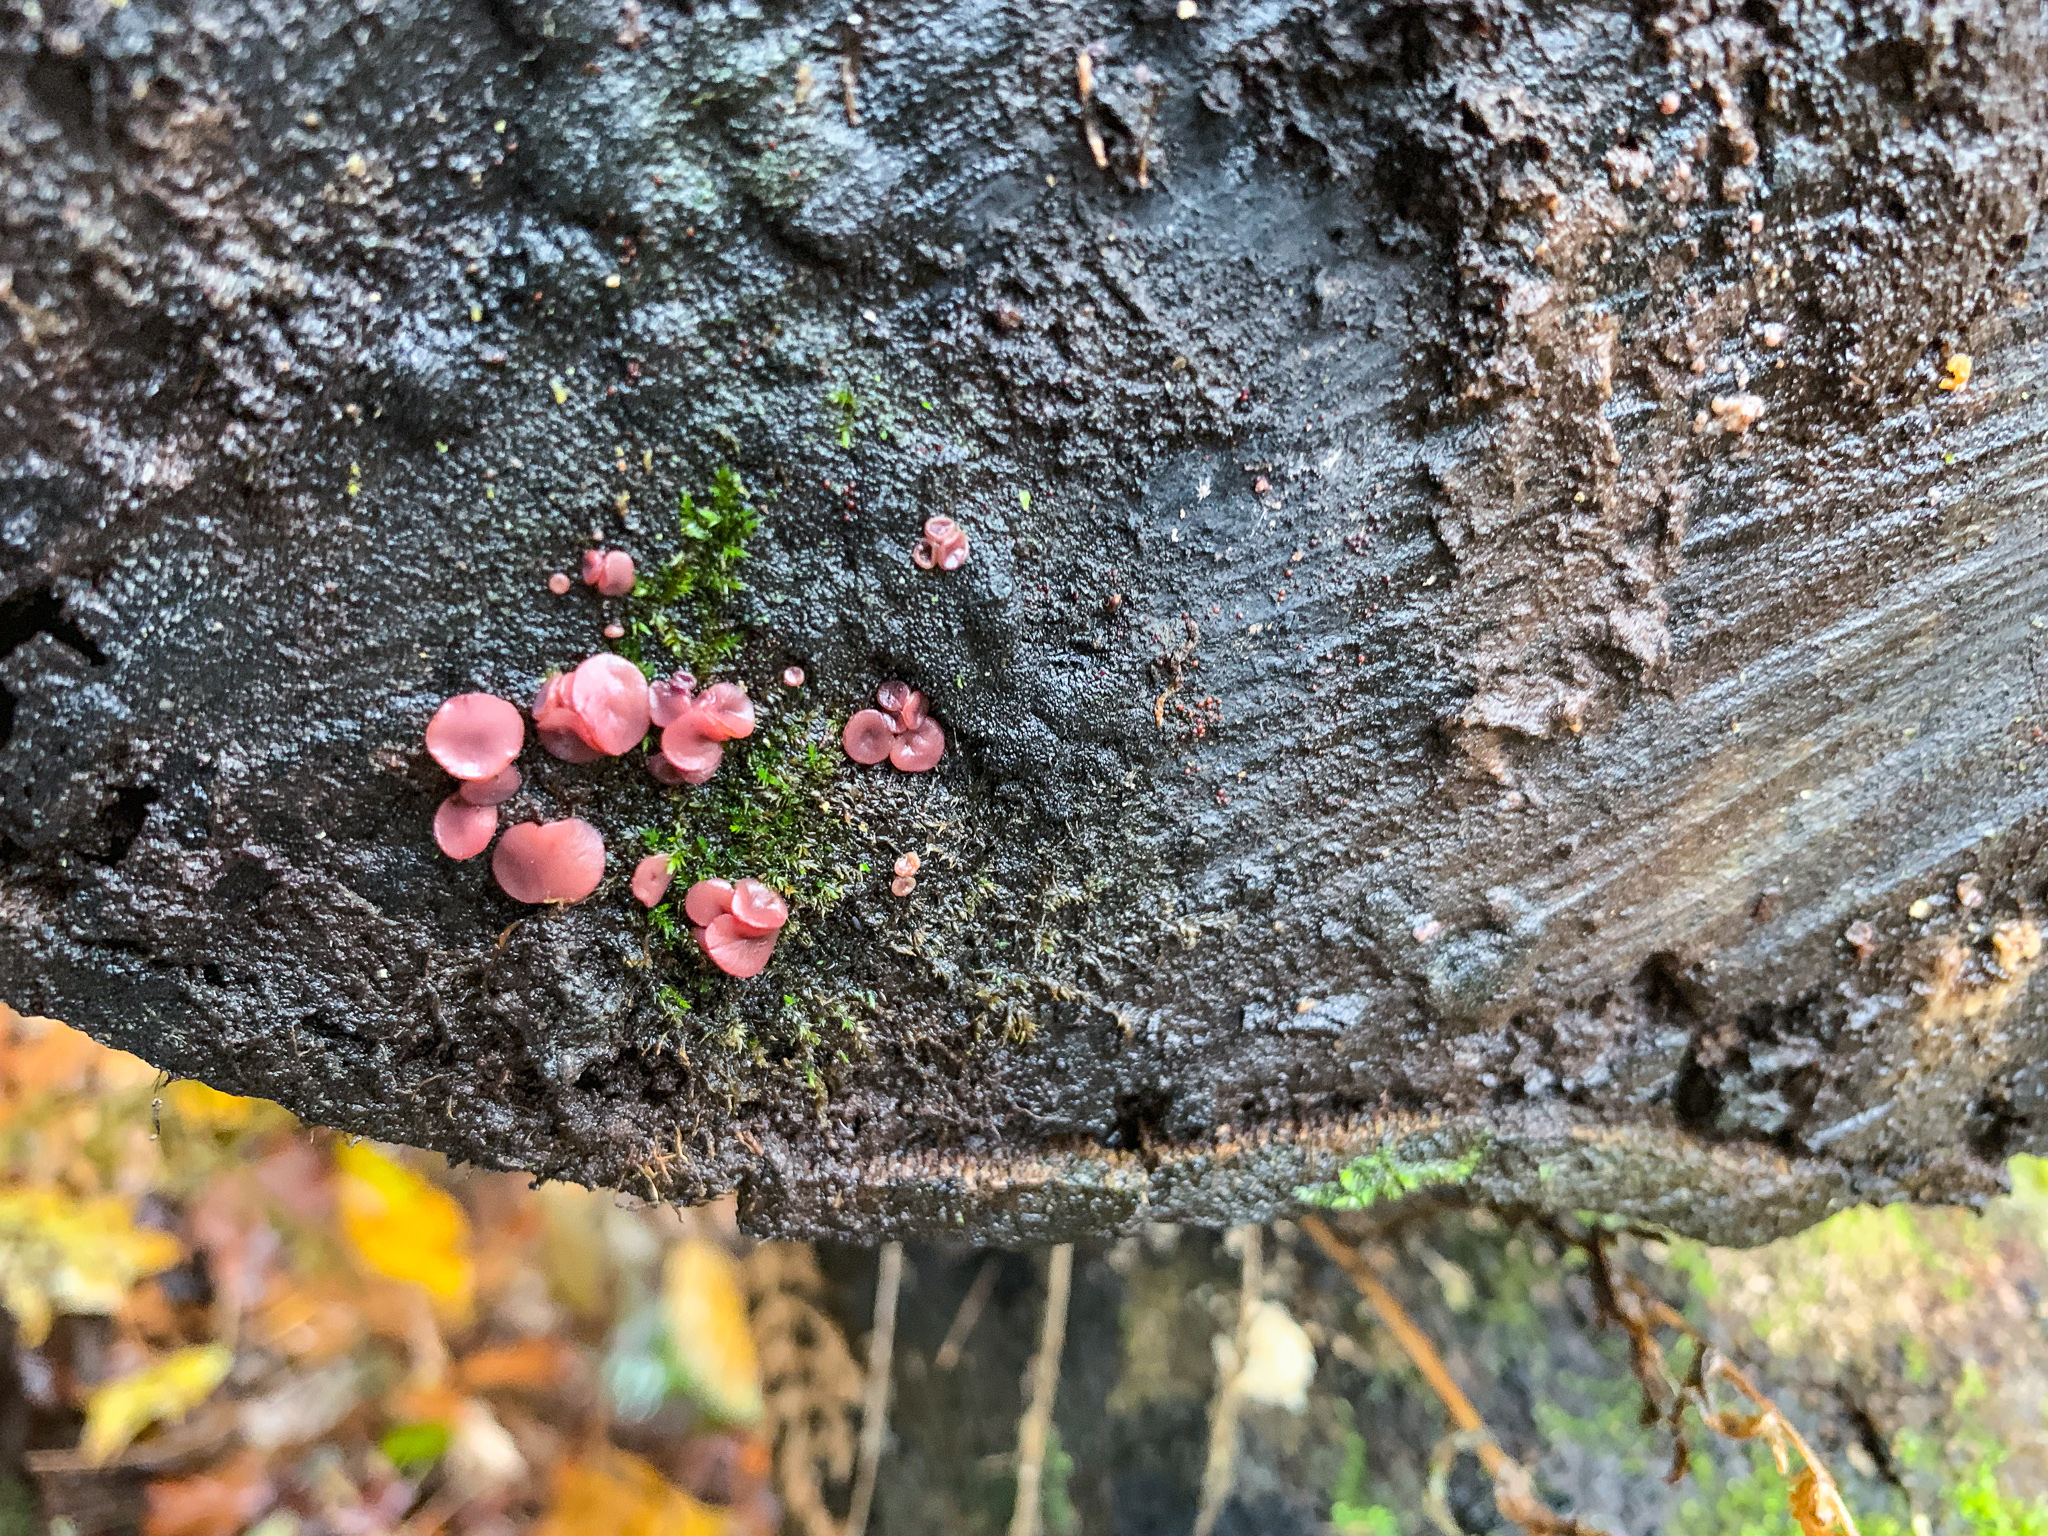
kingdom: Fungi
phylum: Ascomycota
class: Leotiomycetes
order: Helotiales
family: Gelatinodiscaceae
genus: Ascocoryne
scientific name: Ascocoryne sarcoides
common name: Purple jellydisc
